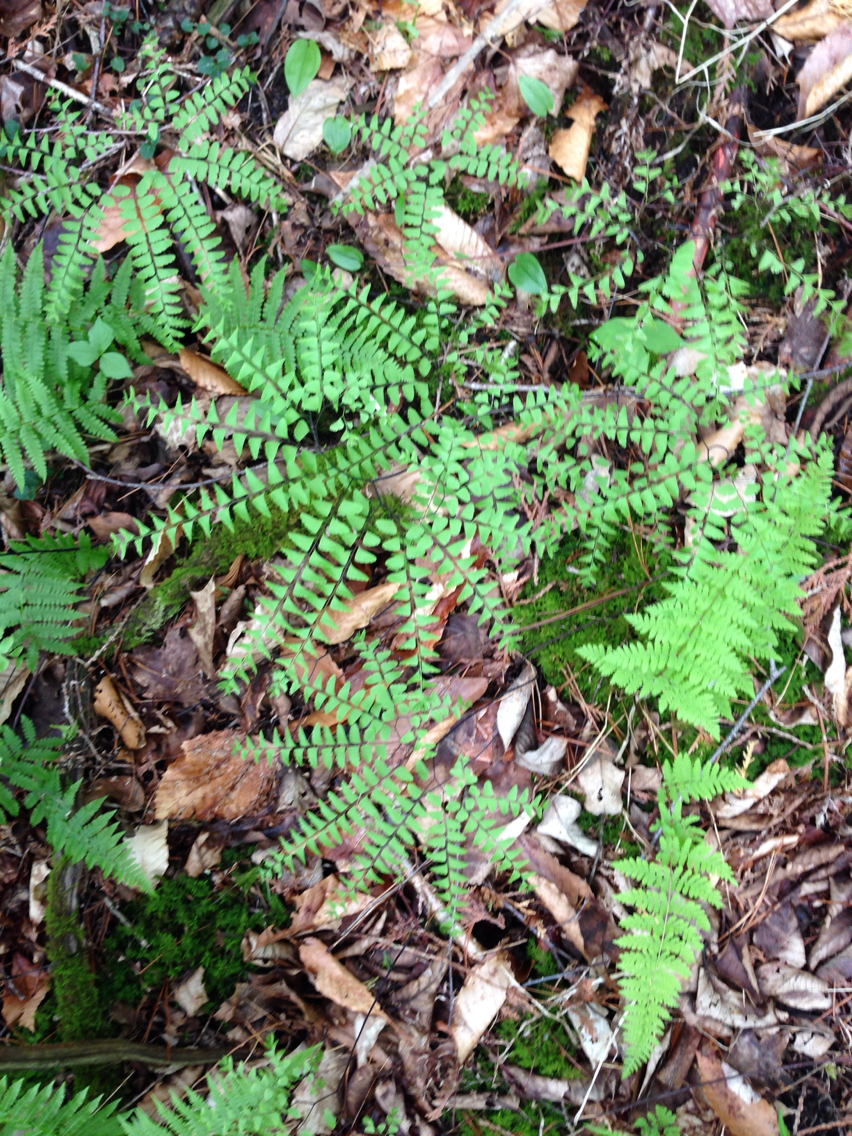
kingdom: Plantae
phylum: Tracheophyta
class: Polypodiopsida
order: Polypodiales
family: Pteridaceae
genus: Adiantum
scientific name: Adiantum pedatum
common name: Five-finger fern
